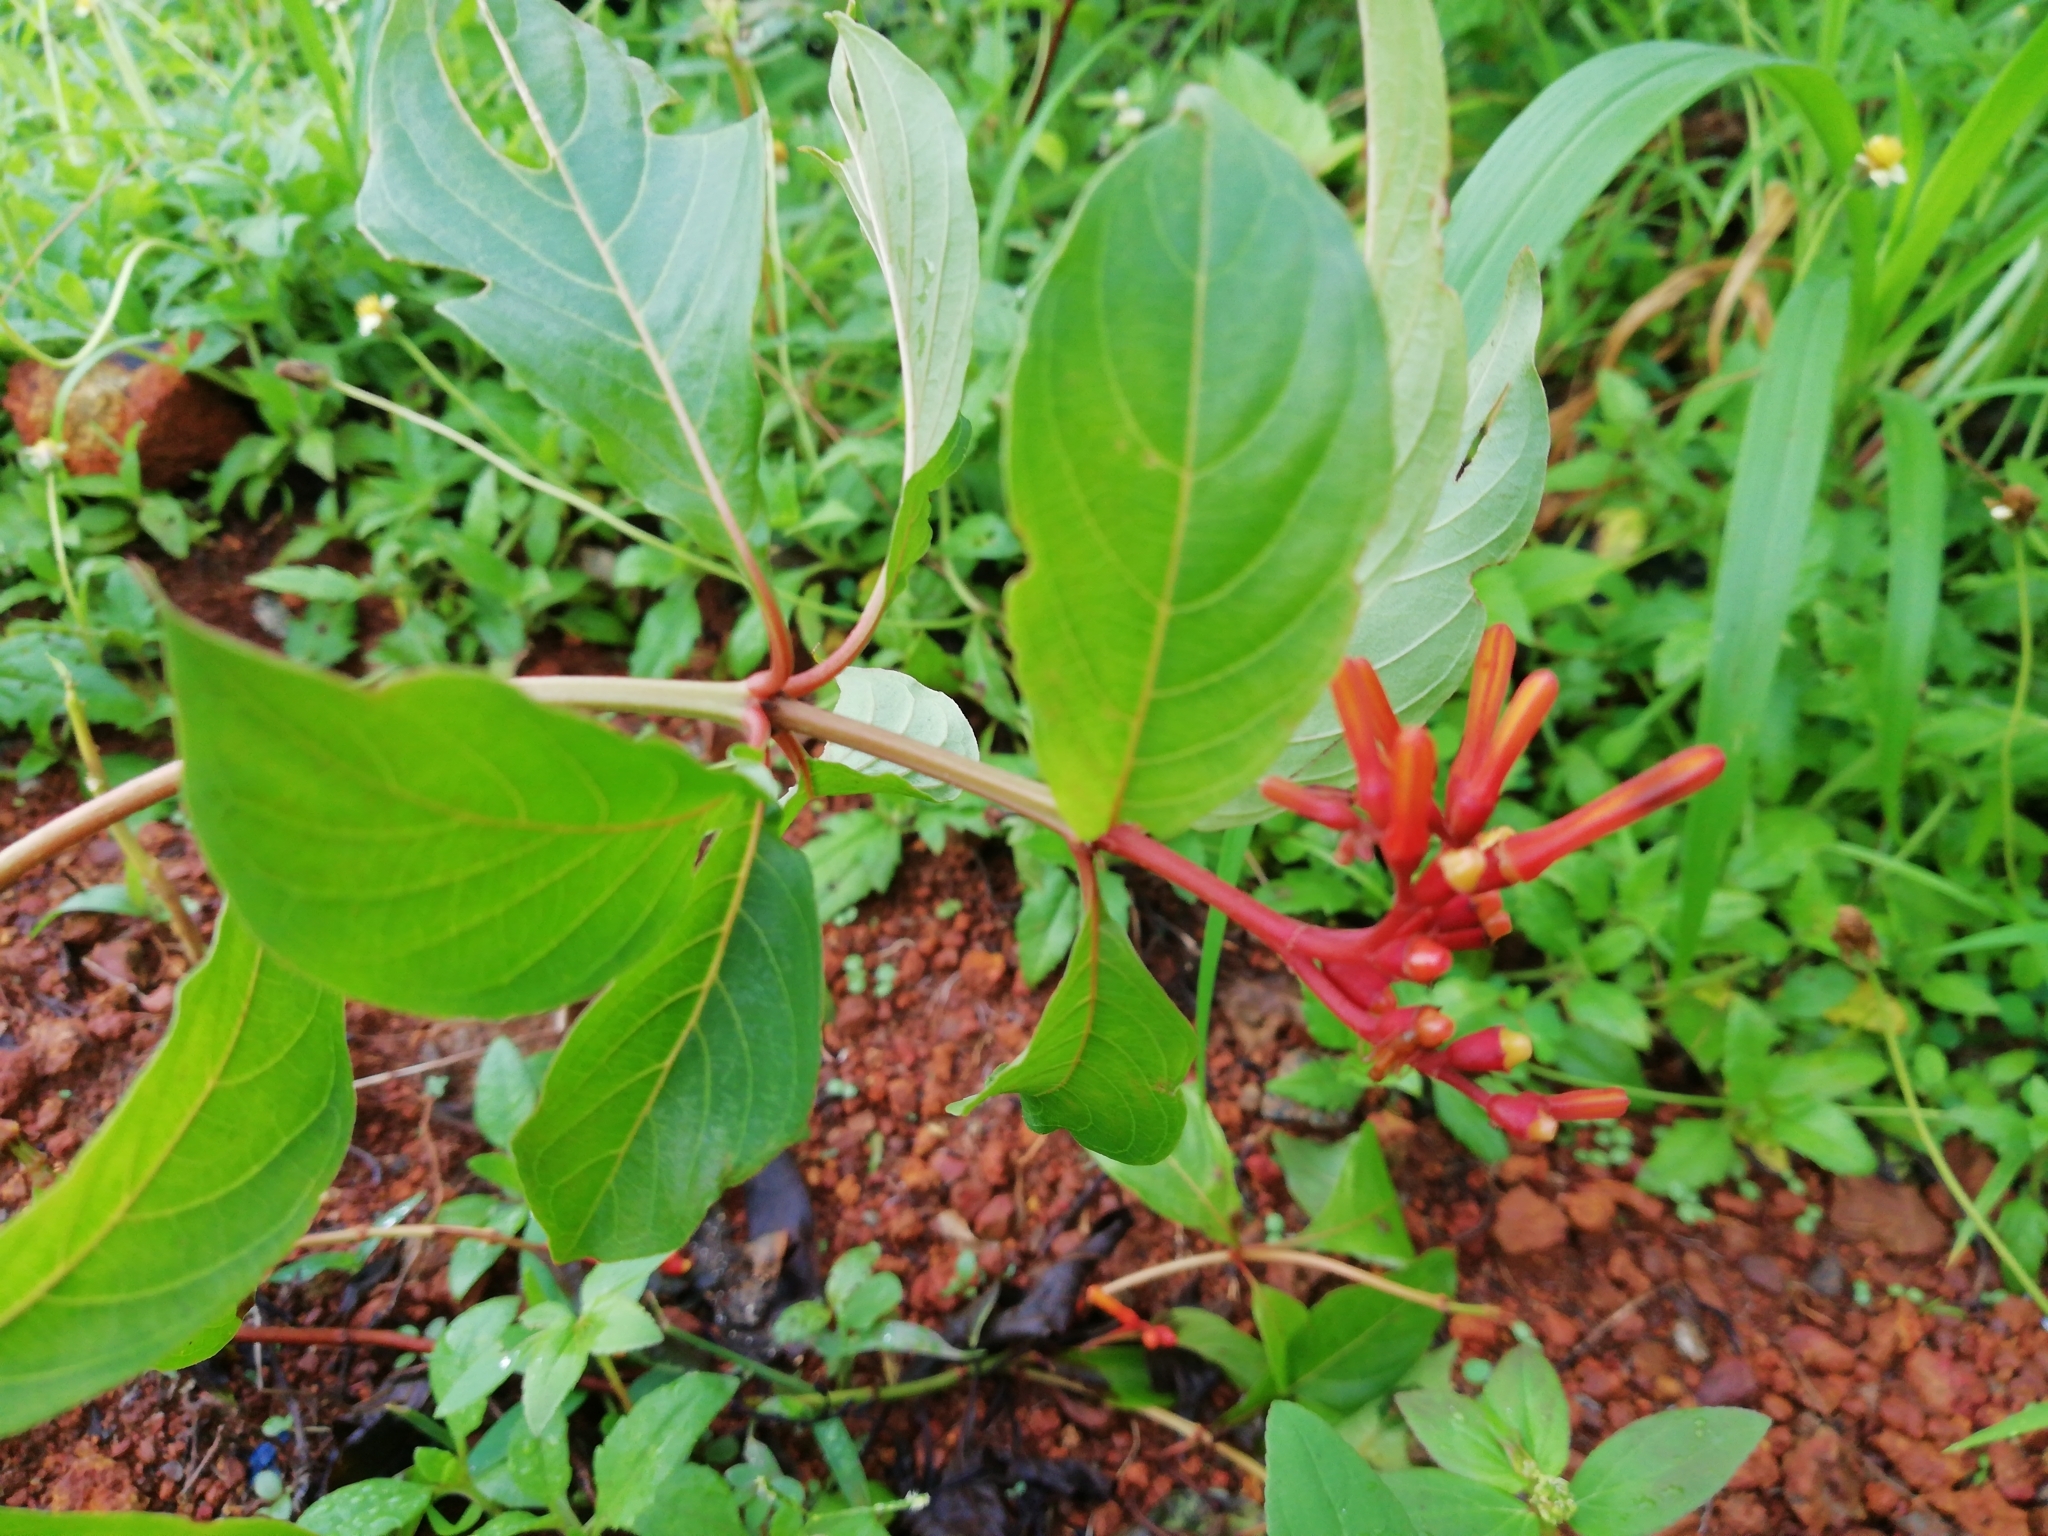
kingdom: Plantae
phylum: Tracheophyta
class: Magnoliopsida
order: Gentianales
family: Rubiaceae
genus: Hamelia
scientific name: Hamelia patens
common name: Redhead
